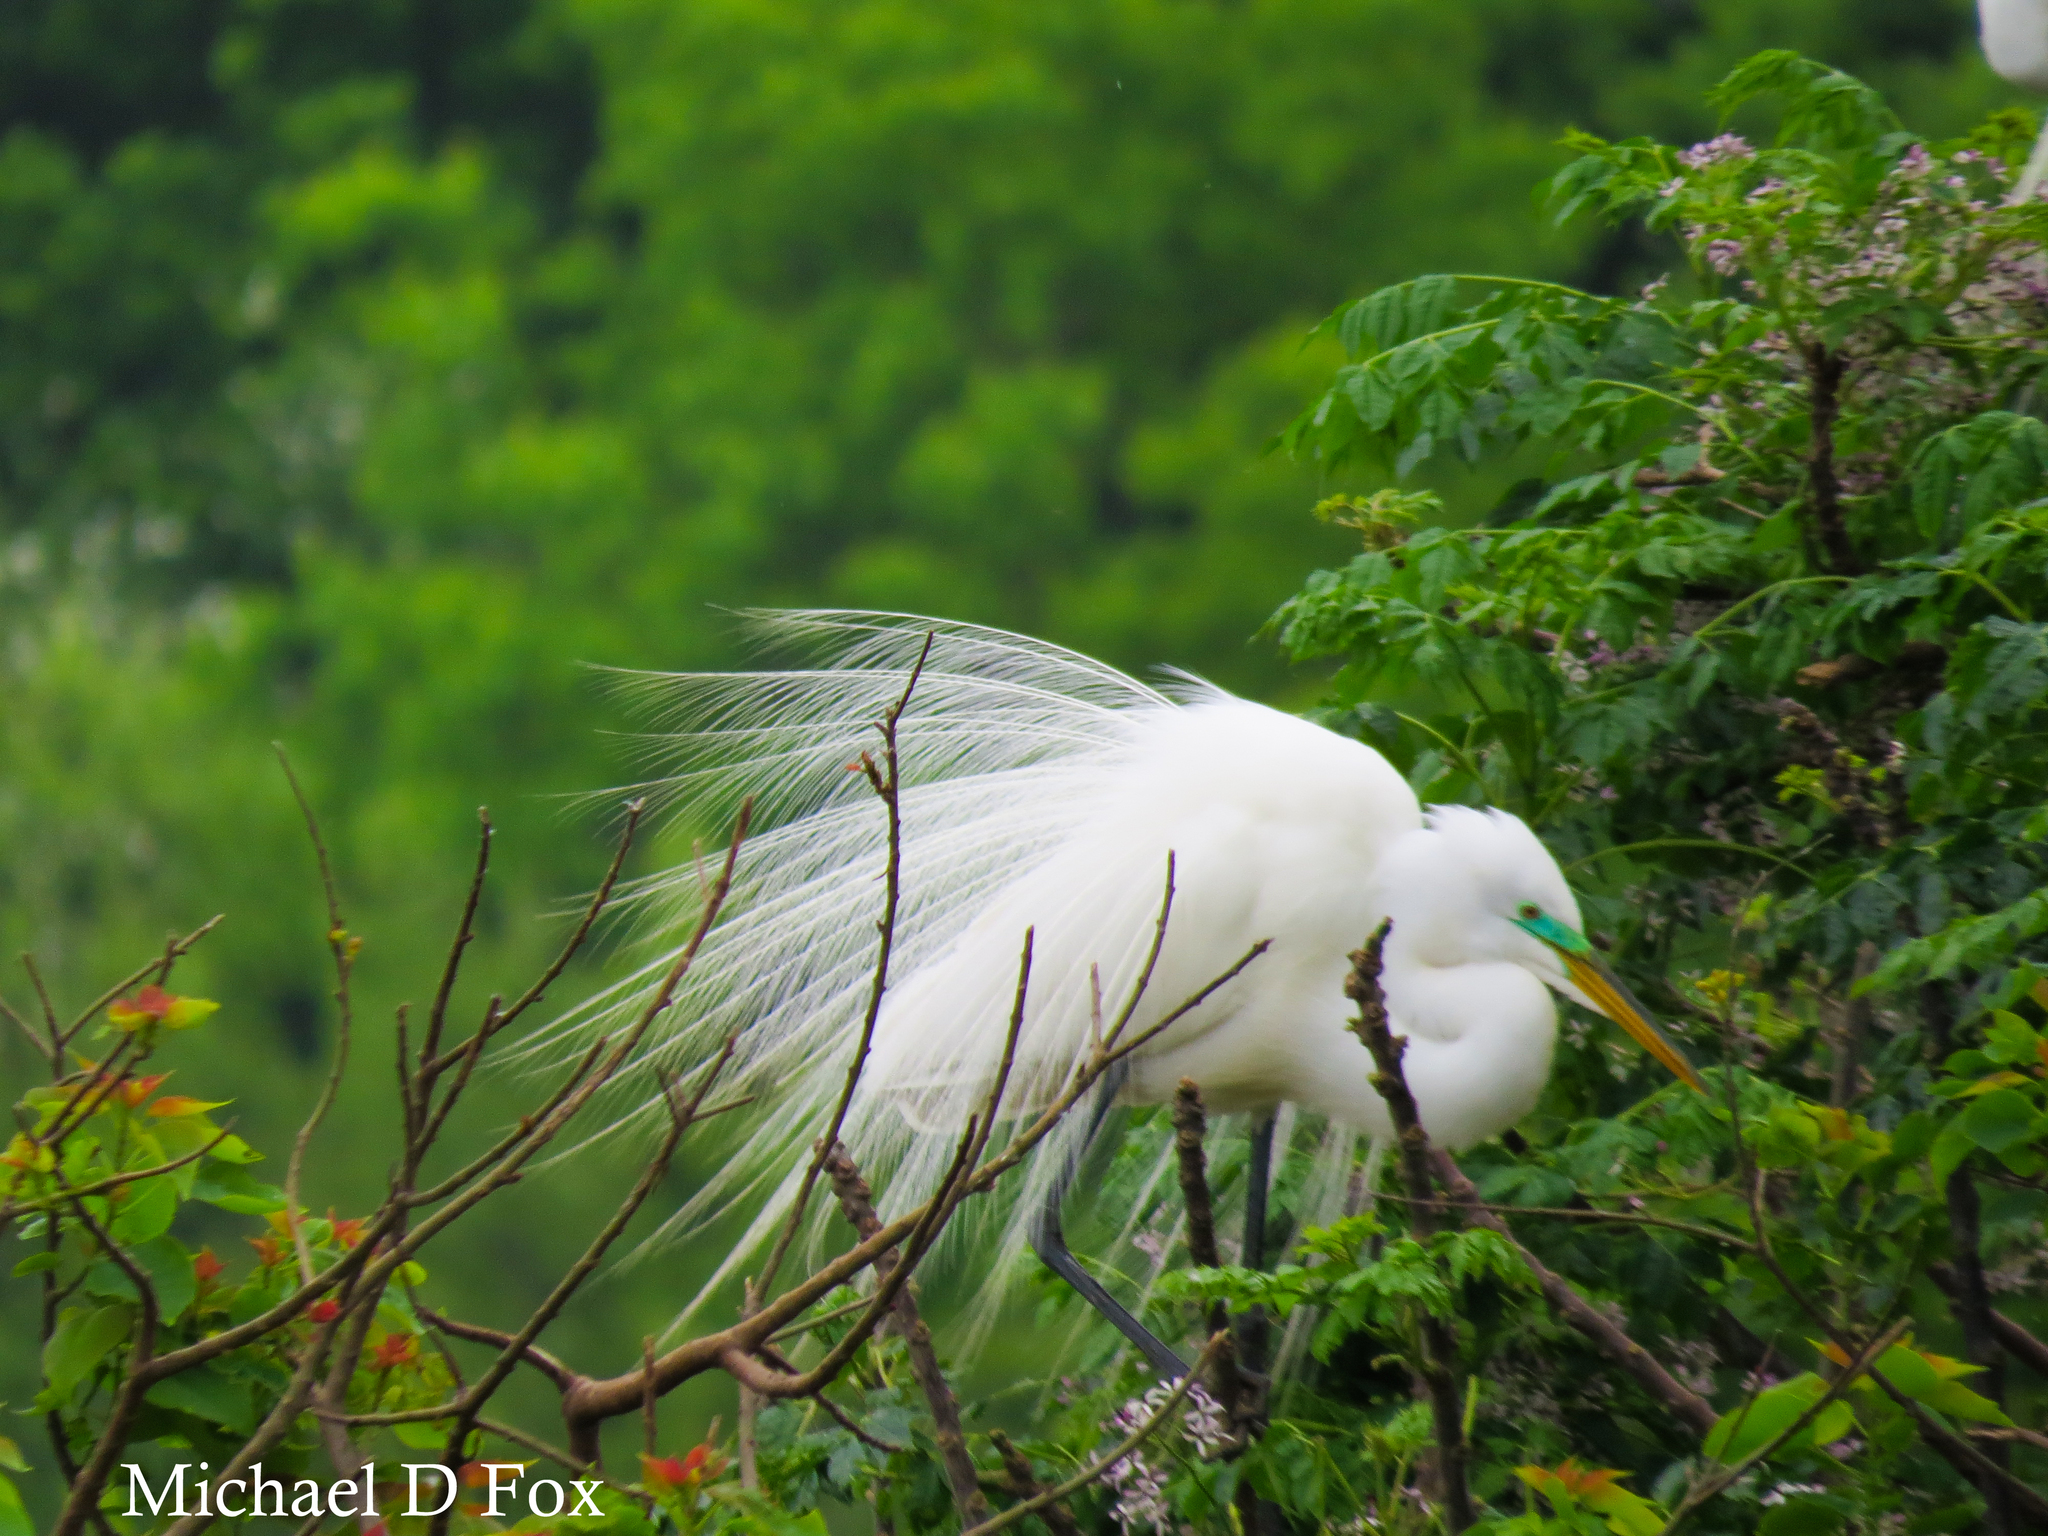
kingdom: Animalia
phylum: Chordata
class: Aves
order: Pelecaniformes
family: Ardeidae
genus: Ardea
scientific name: Ardea alba
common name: Great egret
